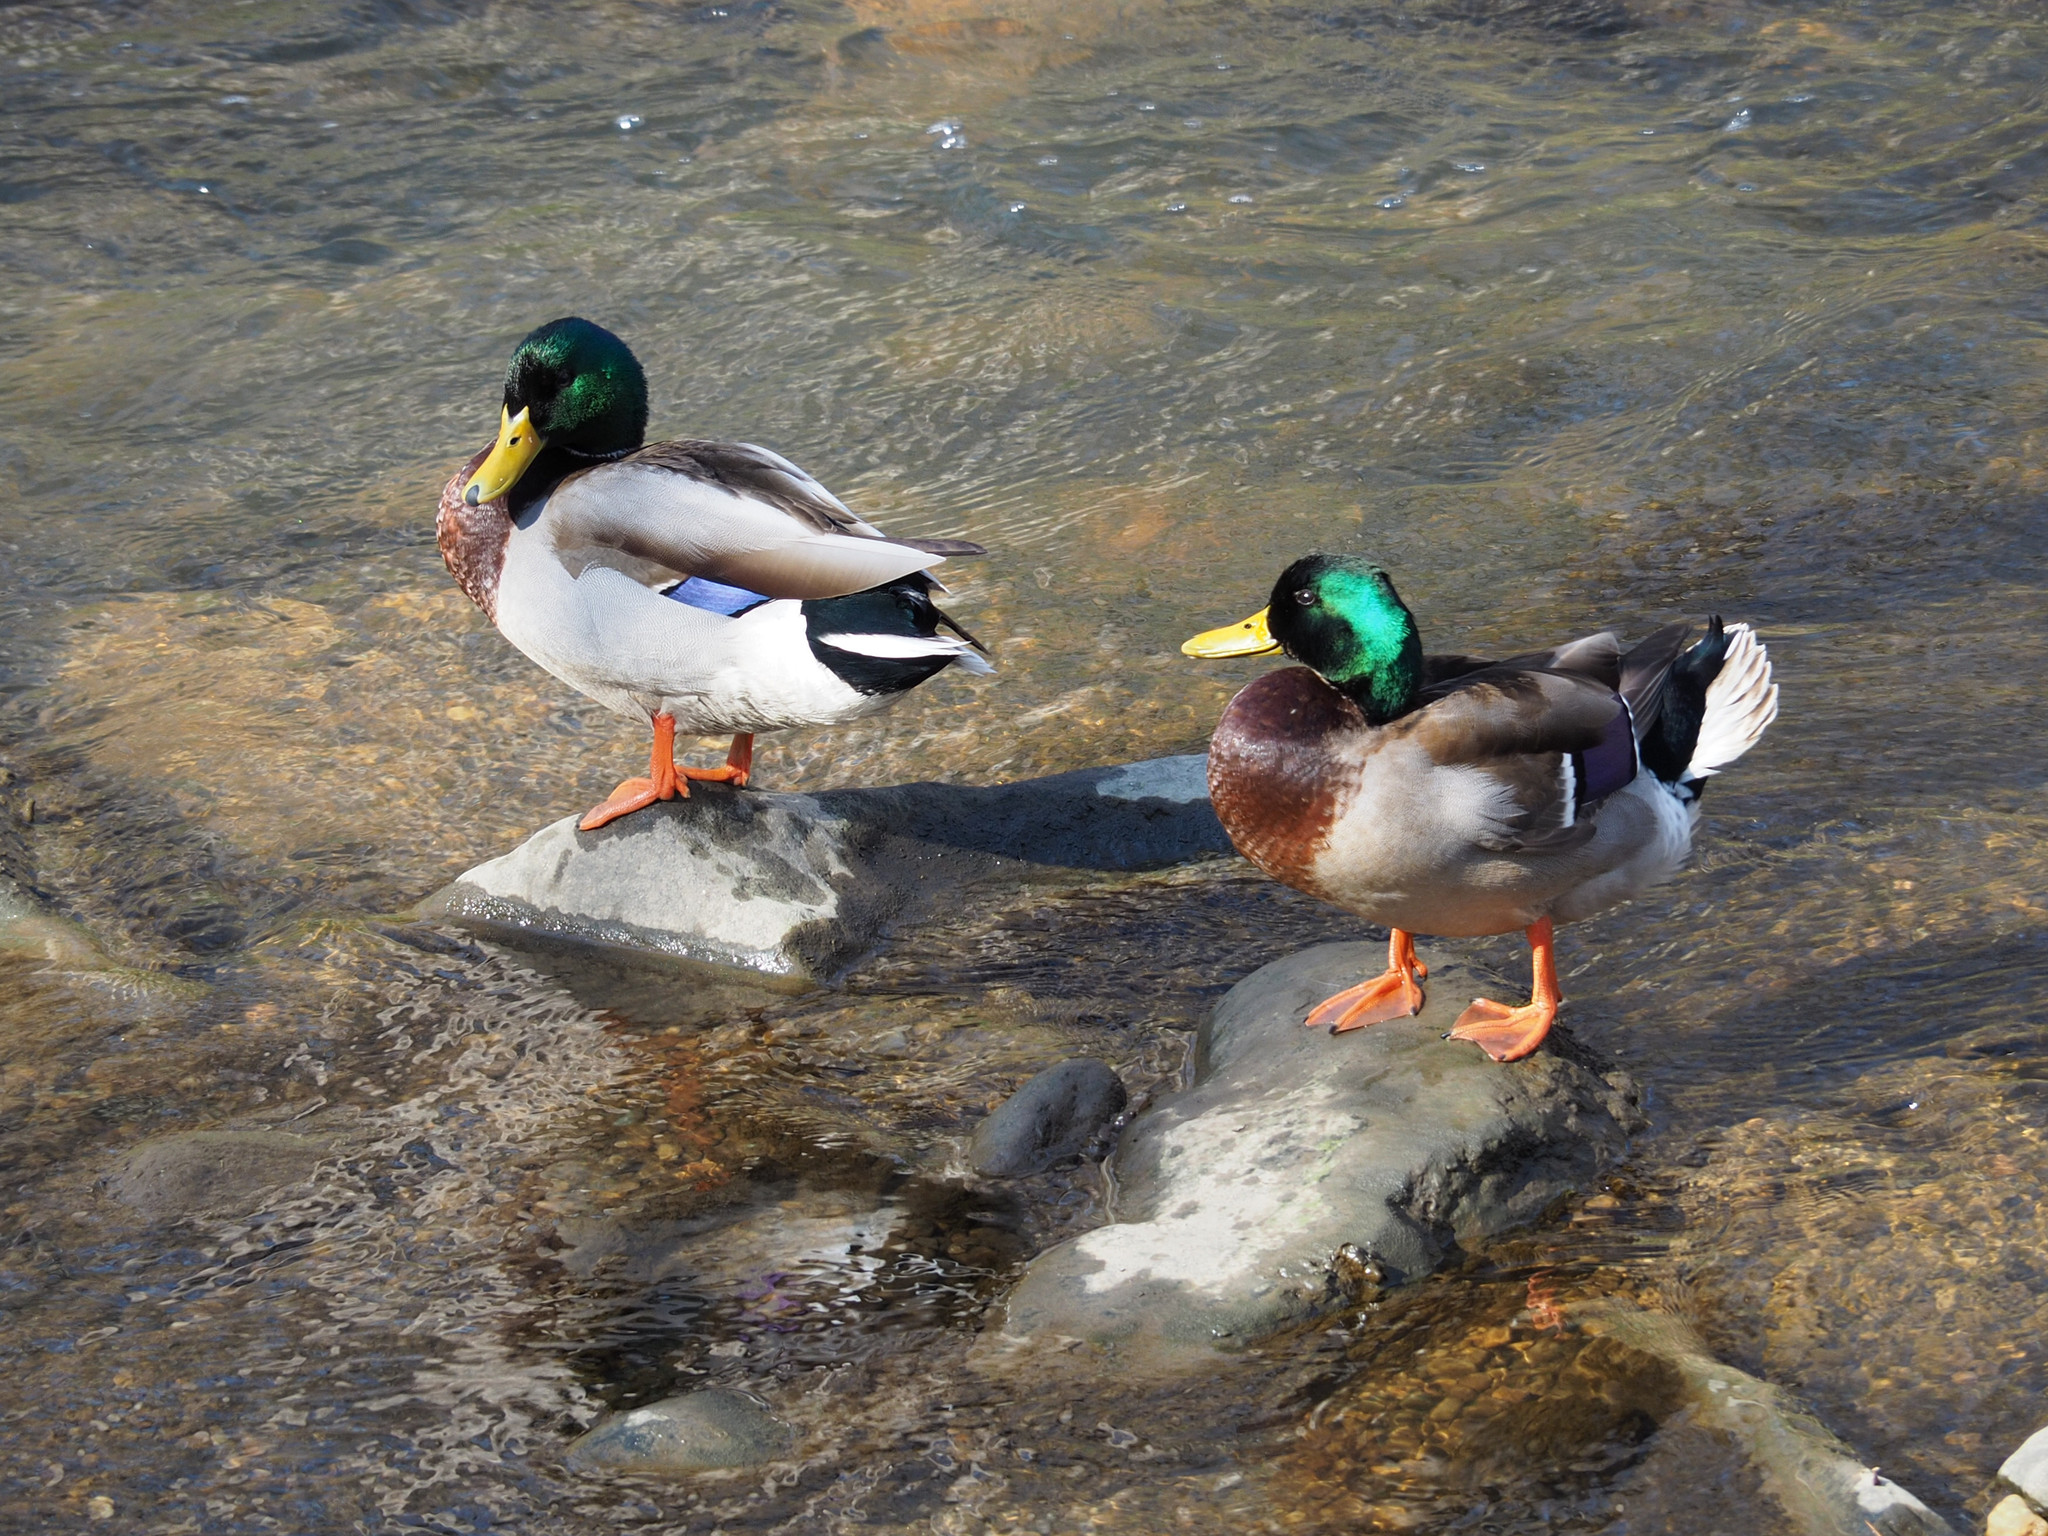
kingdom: Animalia
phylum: Chordata
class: Aves
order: Anseriformes
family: Anatidae
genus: Anas
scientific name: Anas platyrhynchos
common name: Mallard
